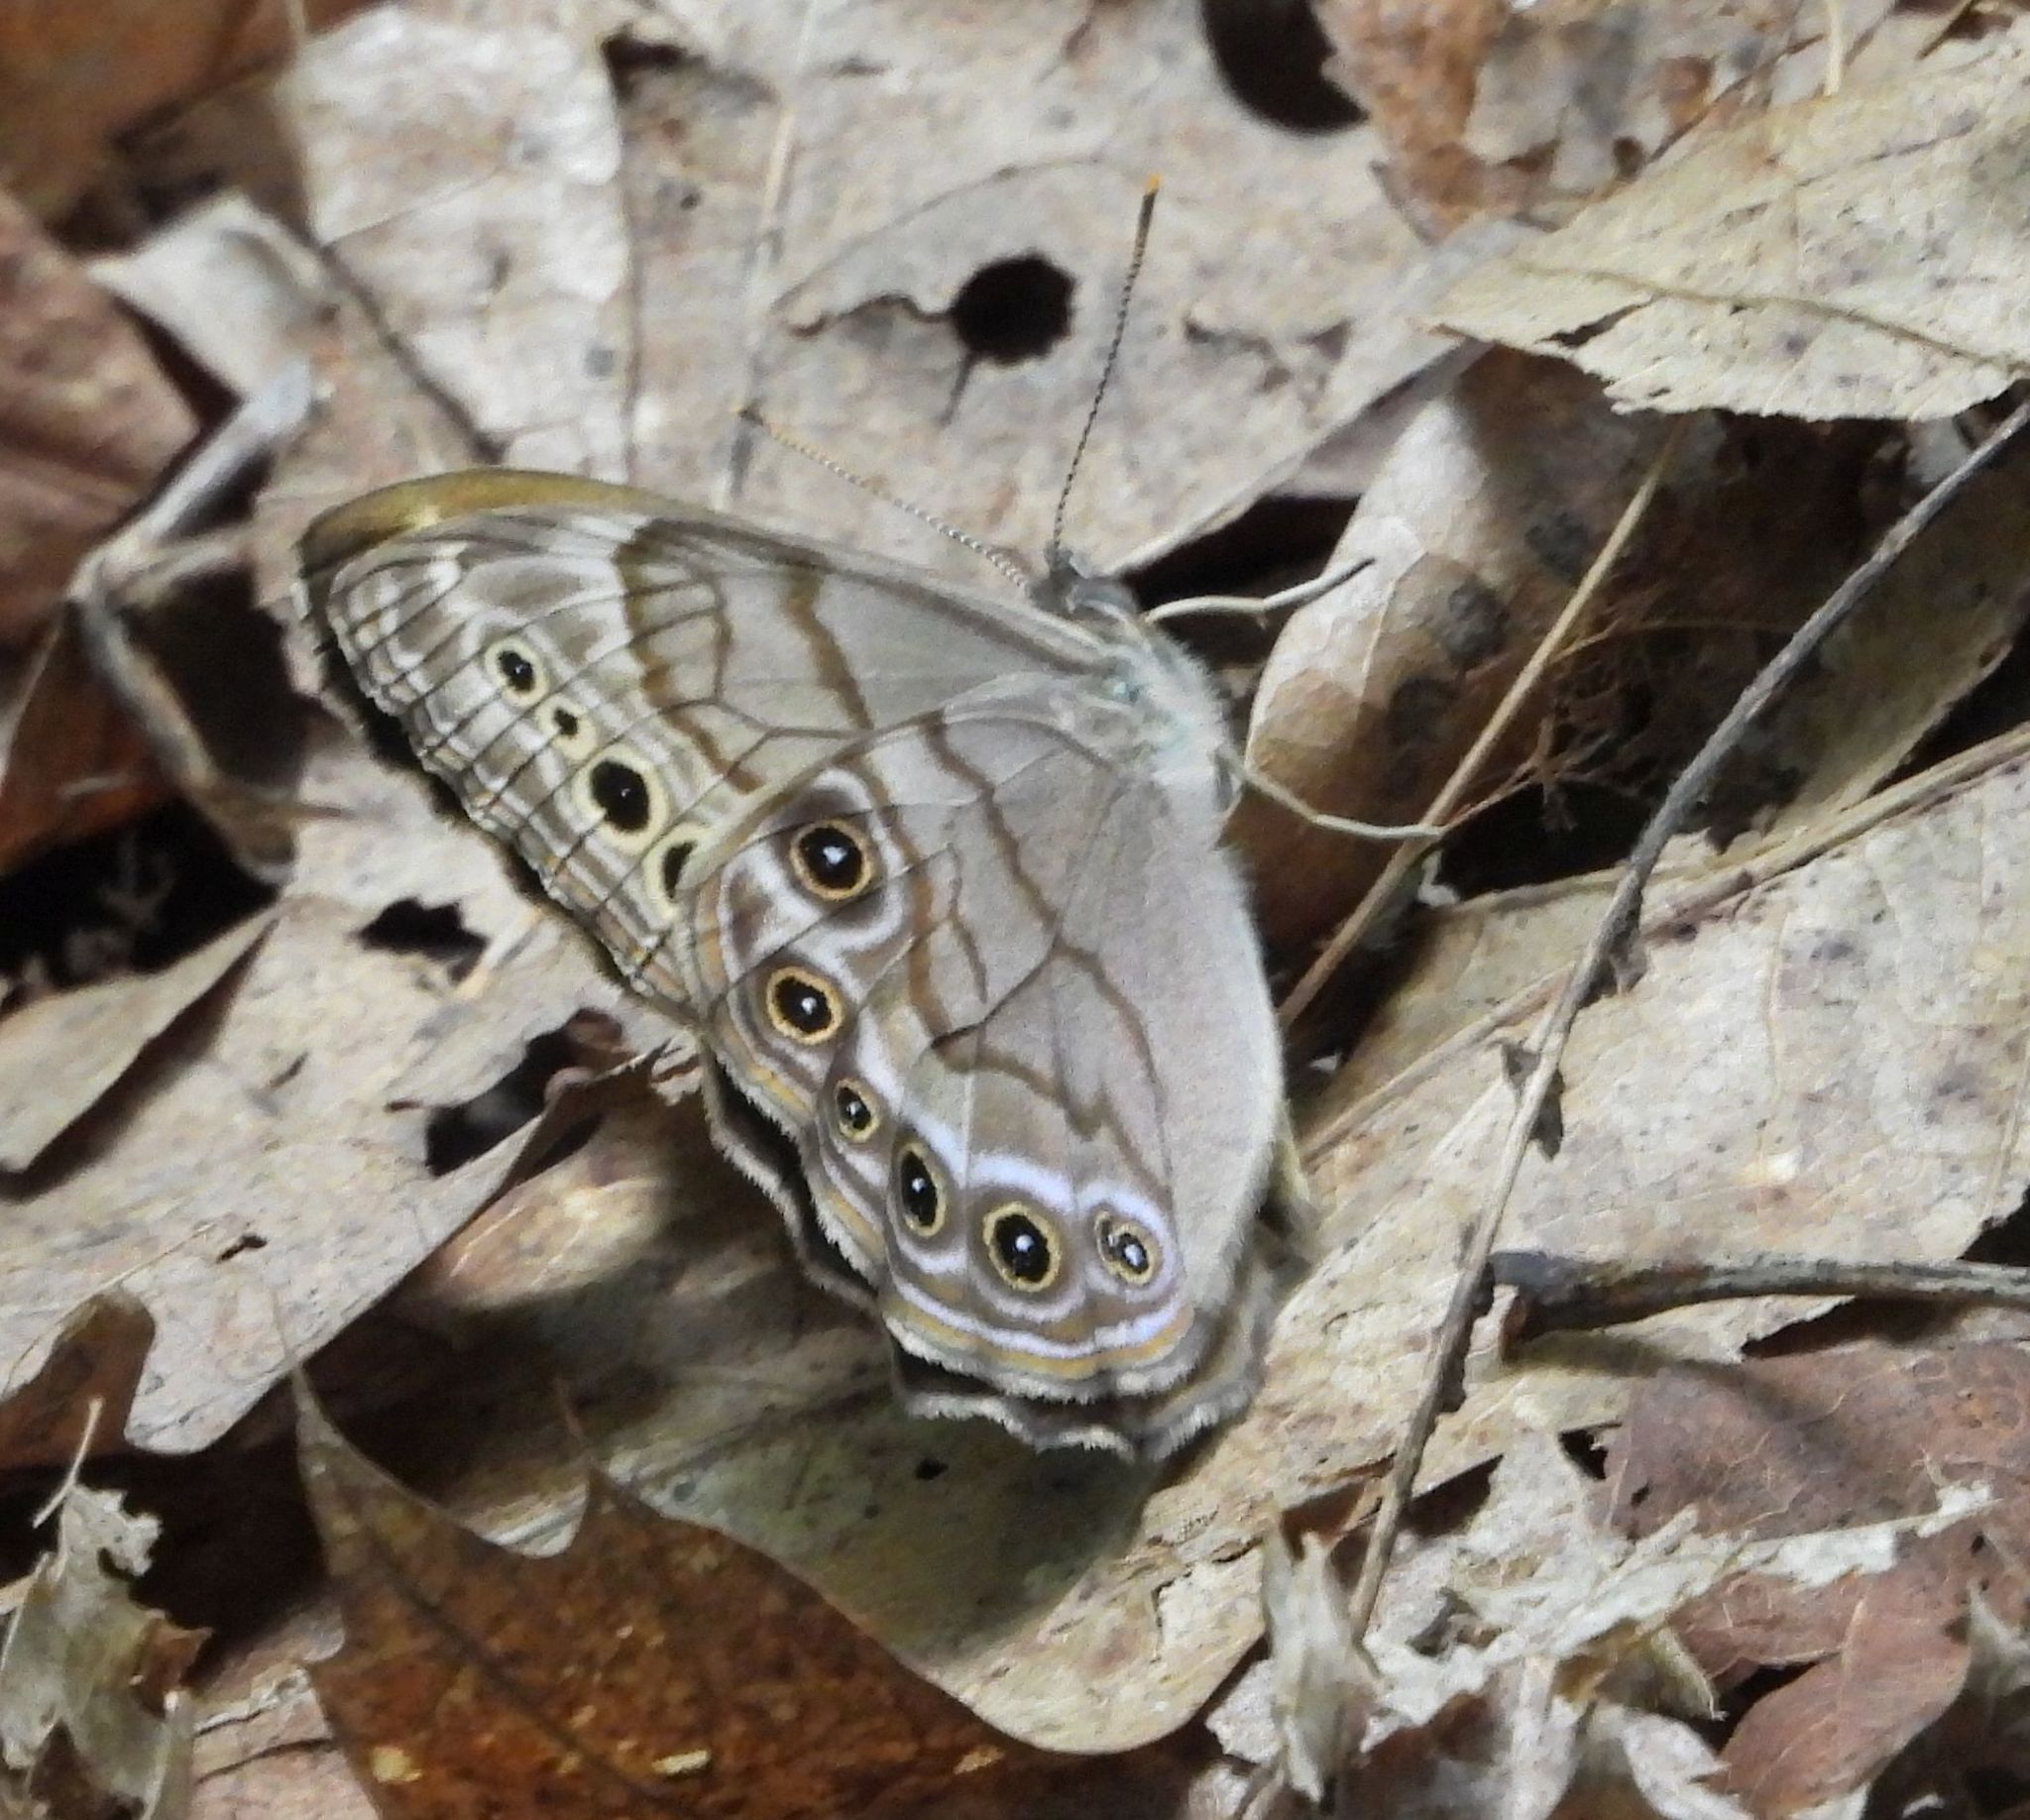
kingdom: Animalia
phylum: Arthropoda
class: Insecta
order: Lepidoptera
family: Nymphalidae
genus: Lethe
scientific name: Lethe anthedon
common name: Northern pearly-eye
